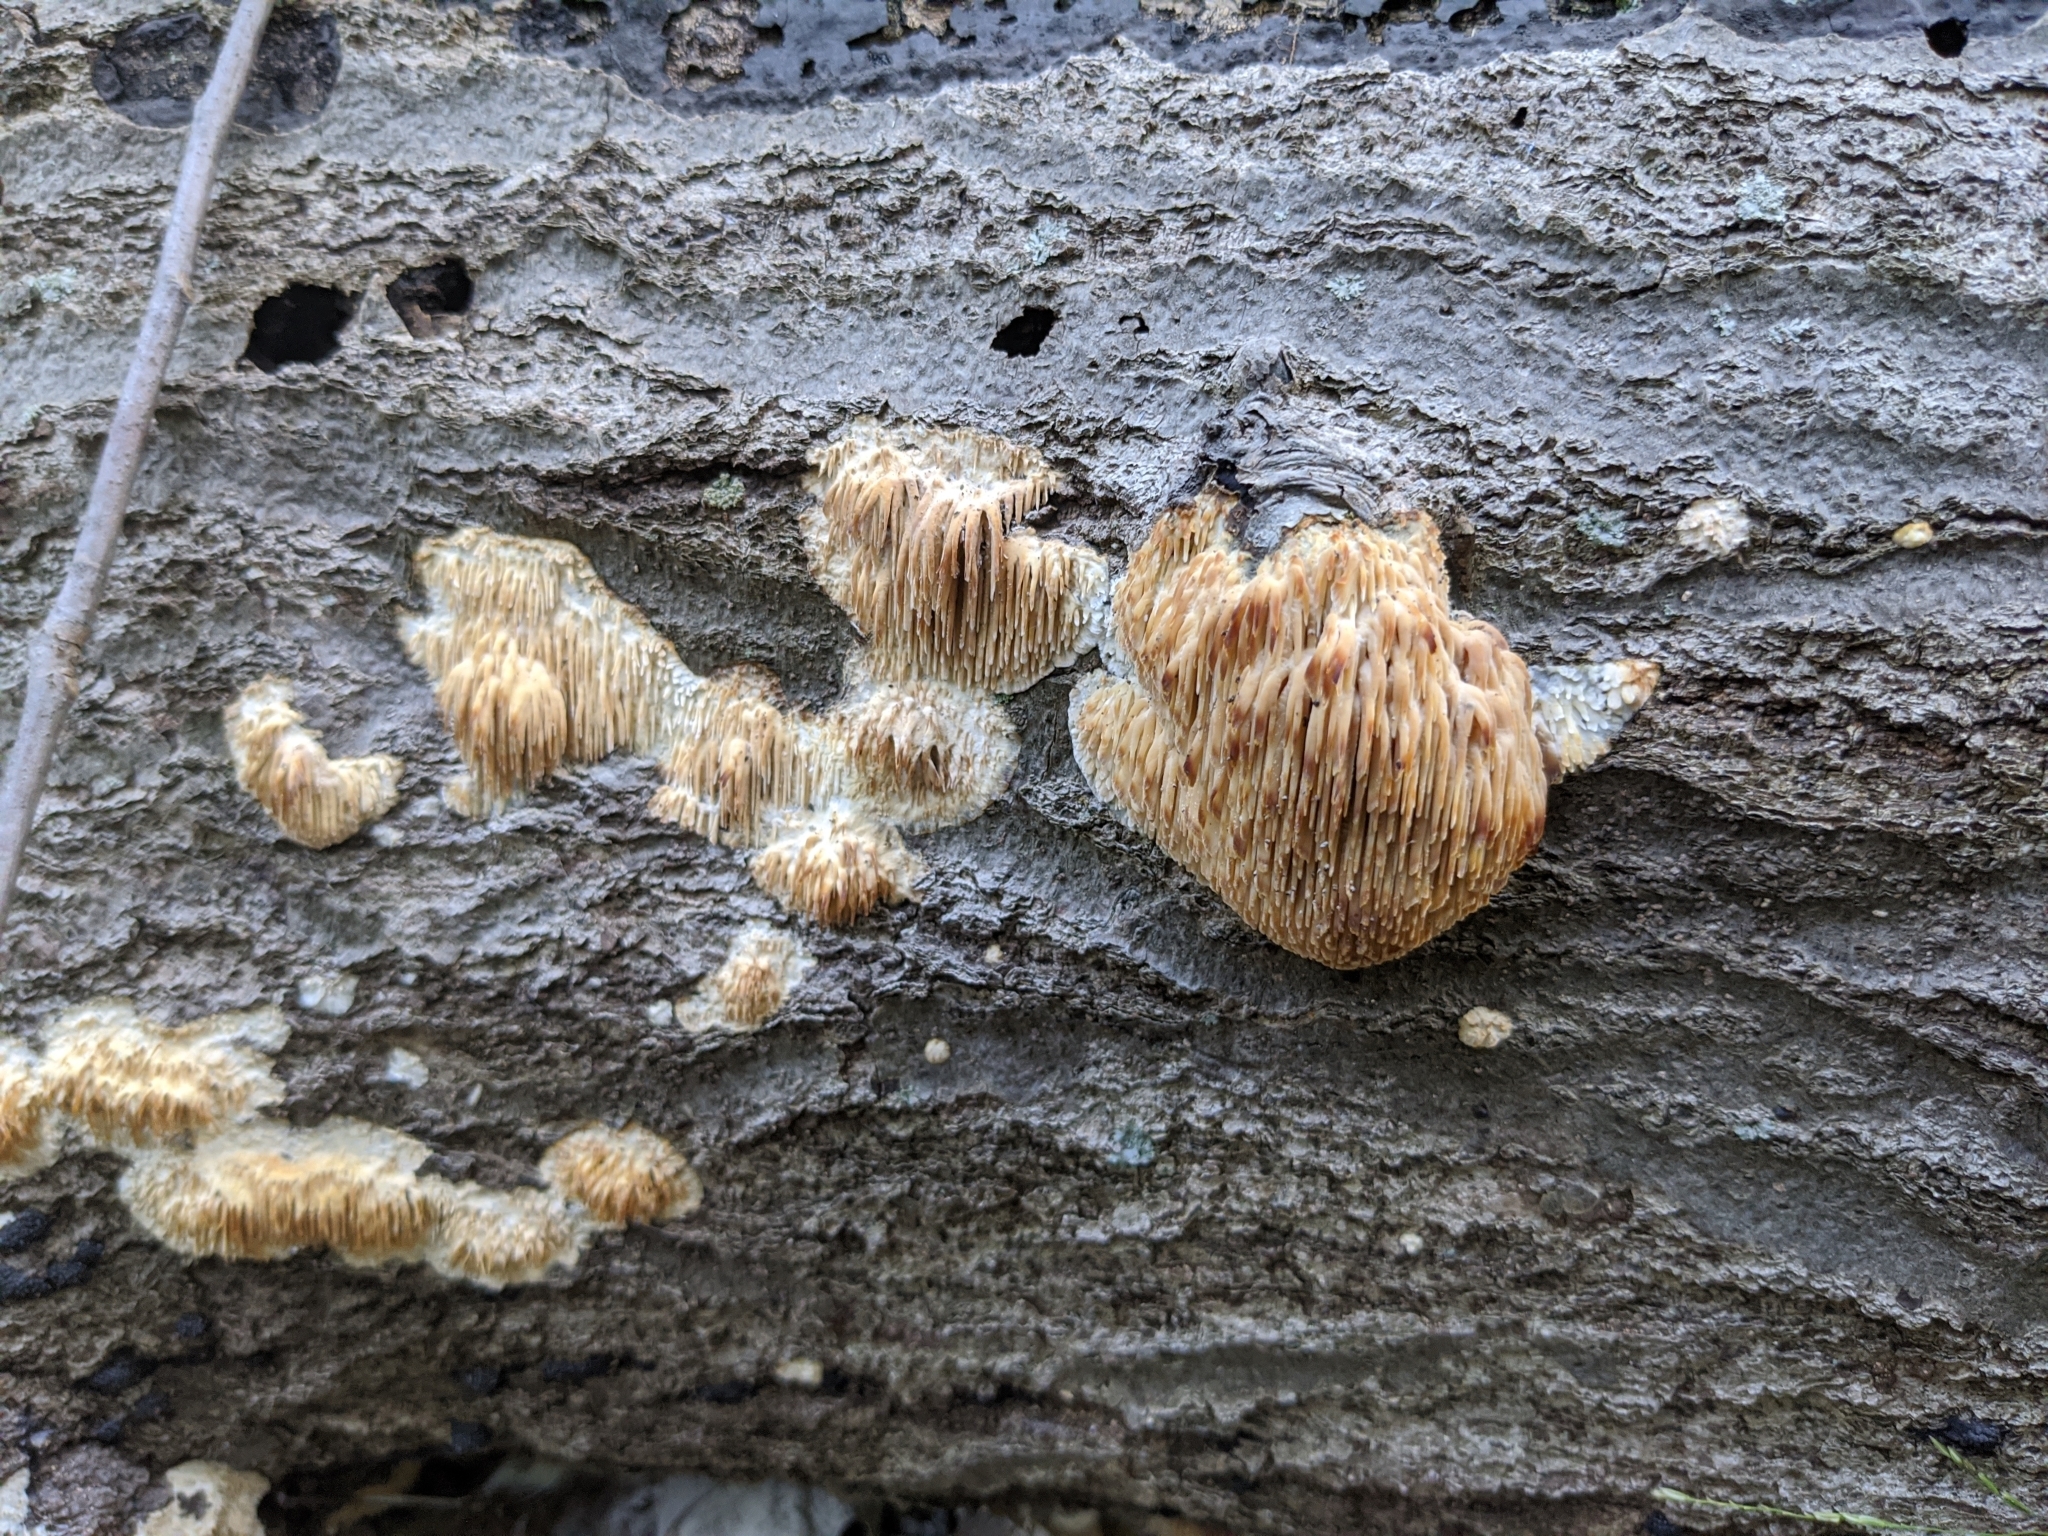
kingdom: Fungi
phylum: Basidiomycota
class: Agaricomycetes
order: Agaricales
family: Radulomycetaceae
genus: Radulomyces
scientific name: Radulomyces copelandii
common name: Asian beauty
